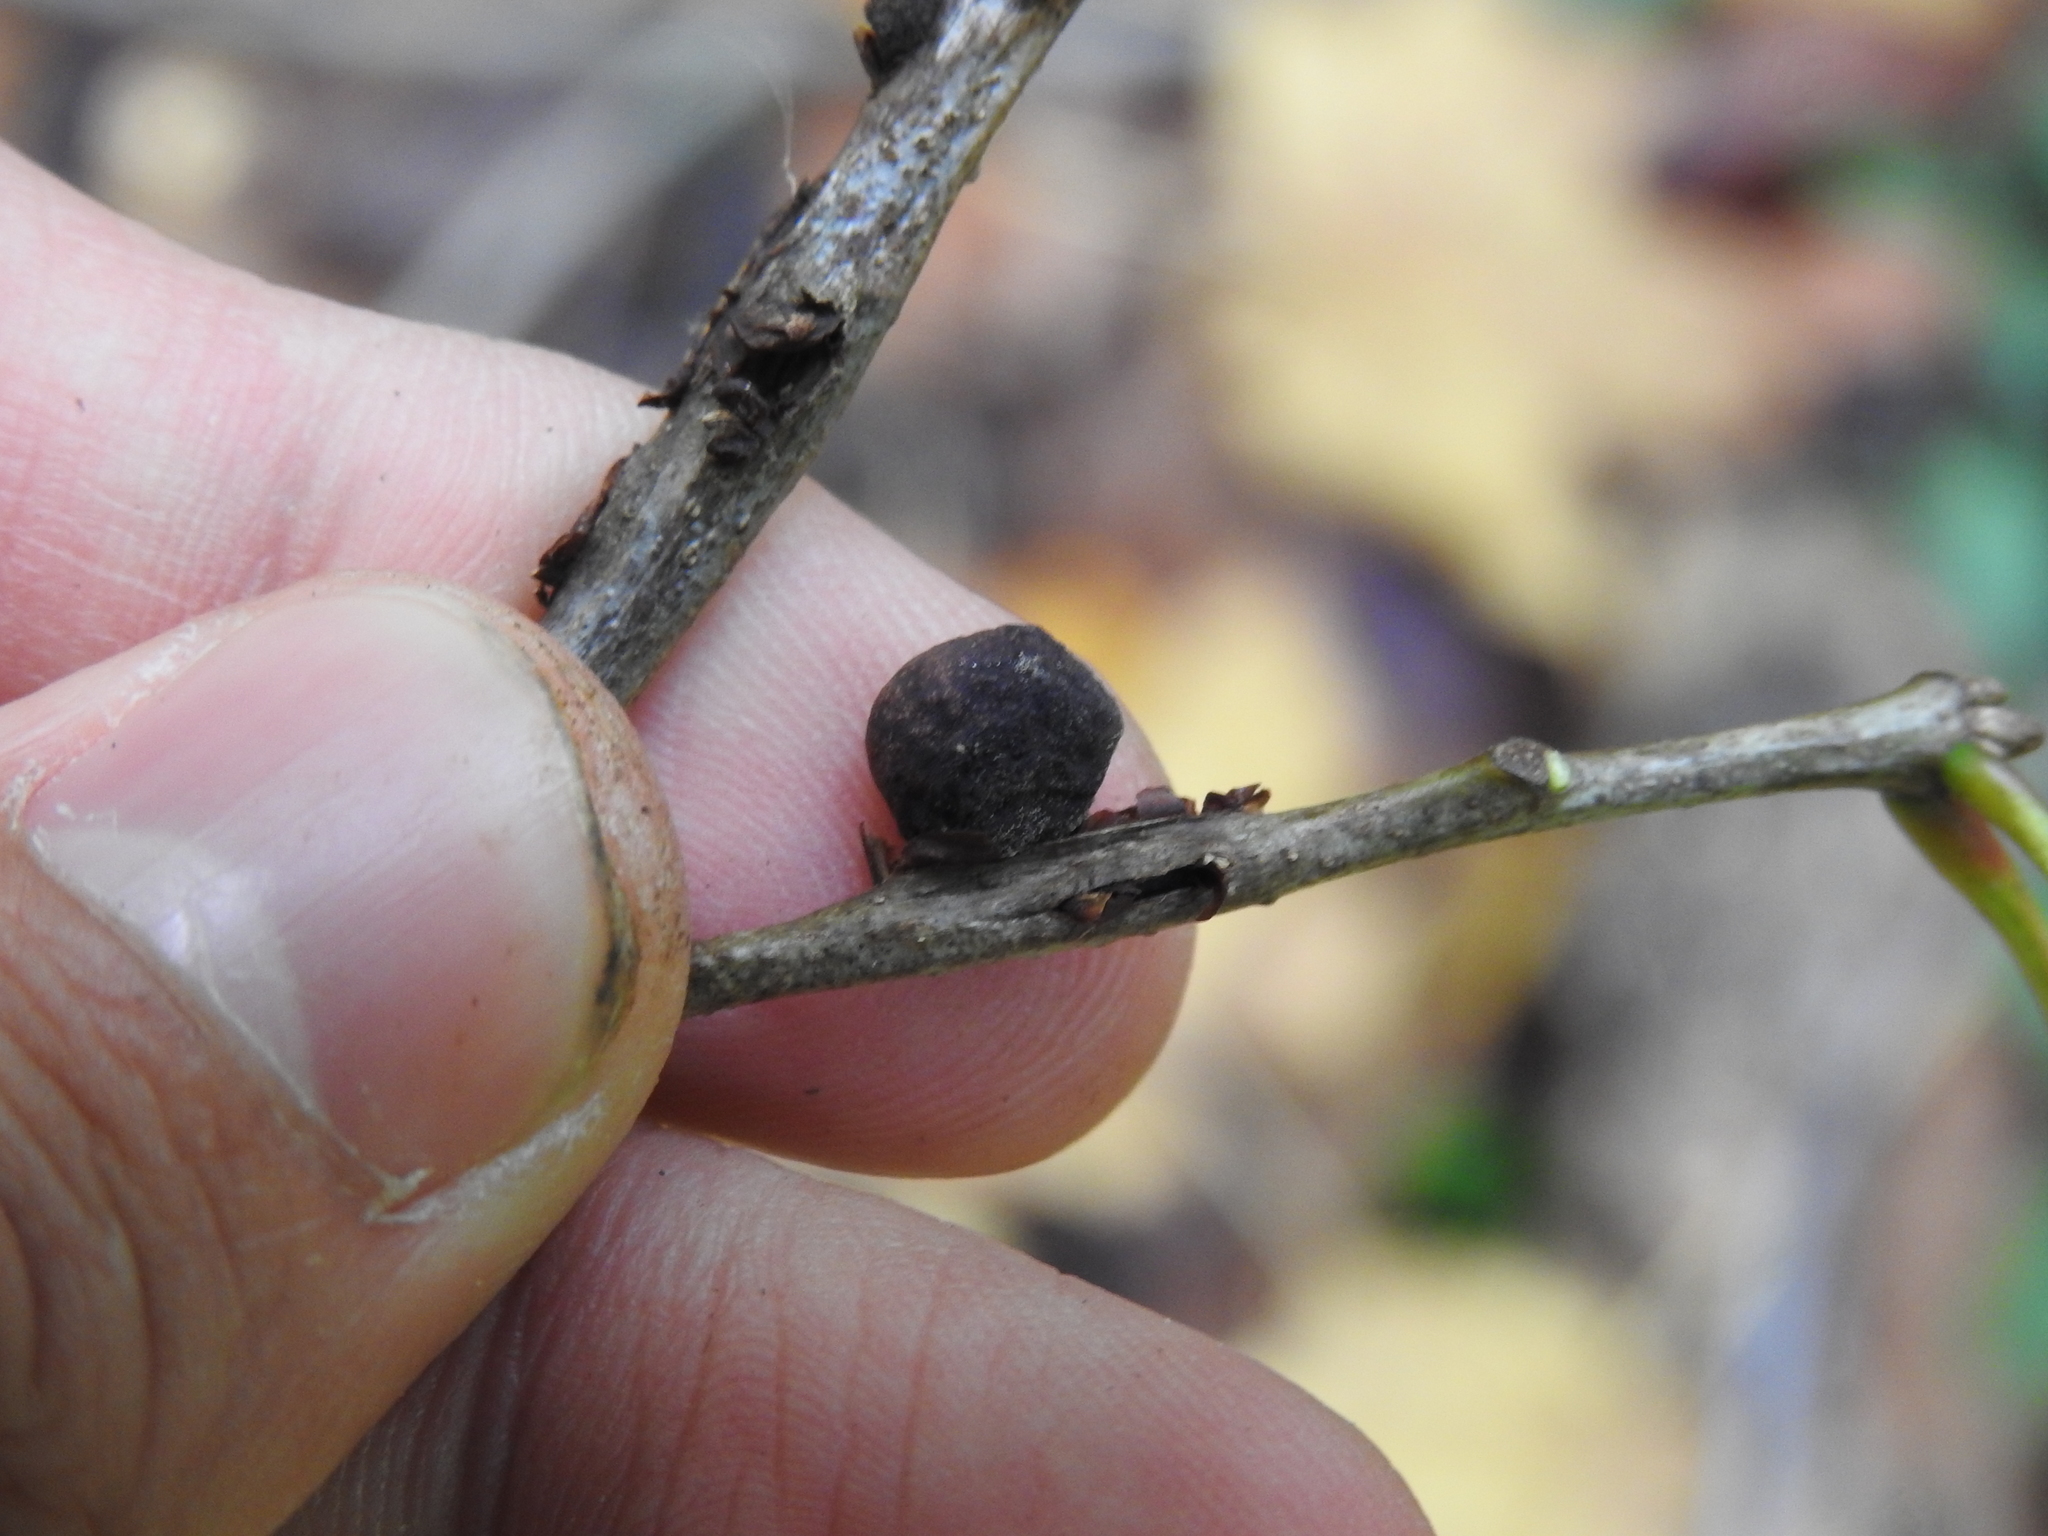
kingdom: Animalia
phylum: Arthropoda
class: Insecta
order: Hymenoptera
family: Cynipidae
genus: Kokkocynips
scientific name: Kokkocynips imbricariae
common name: Banded bullet gall wasp
